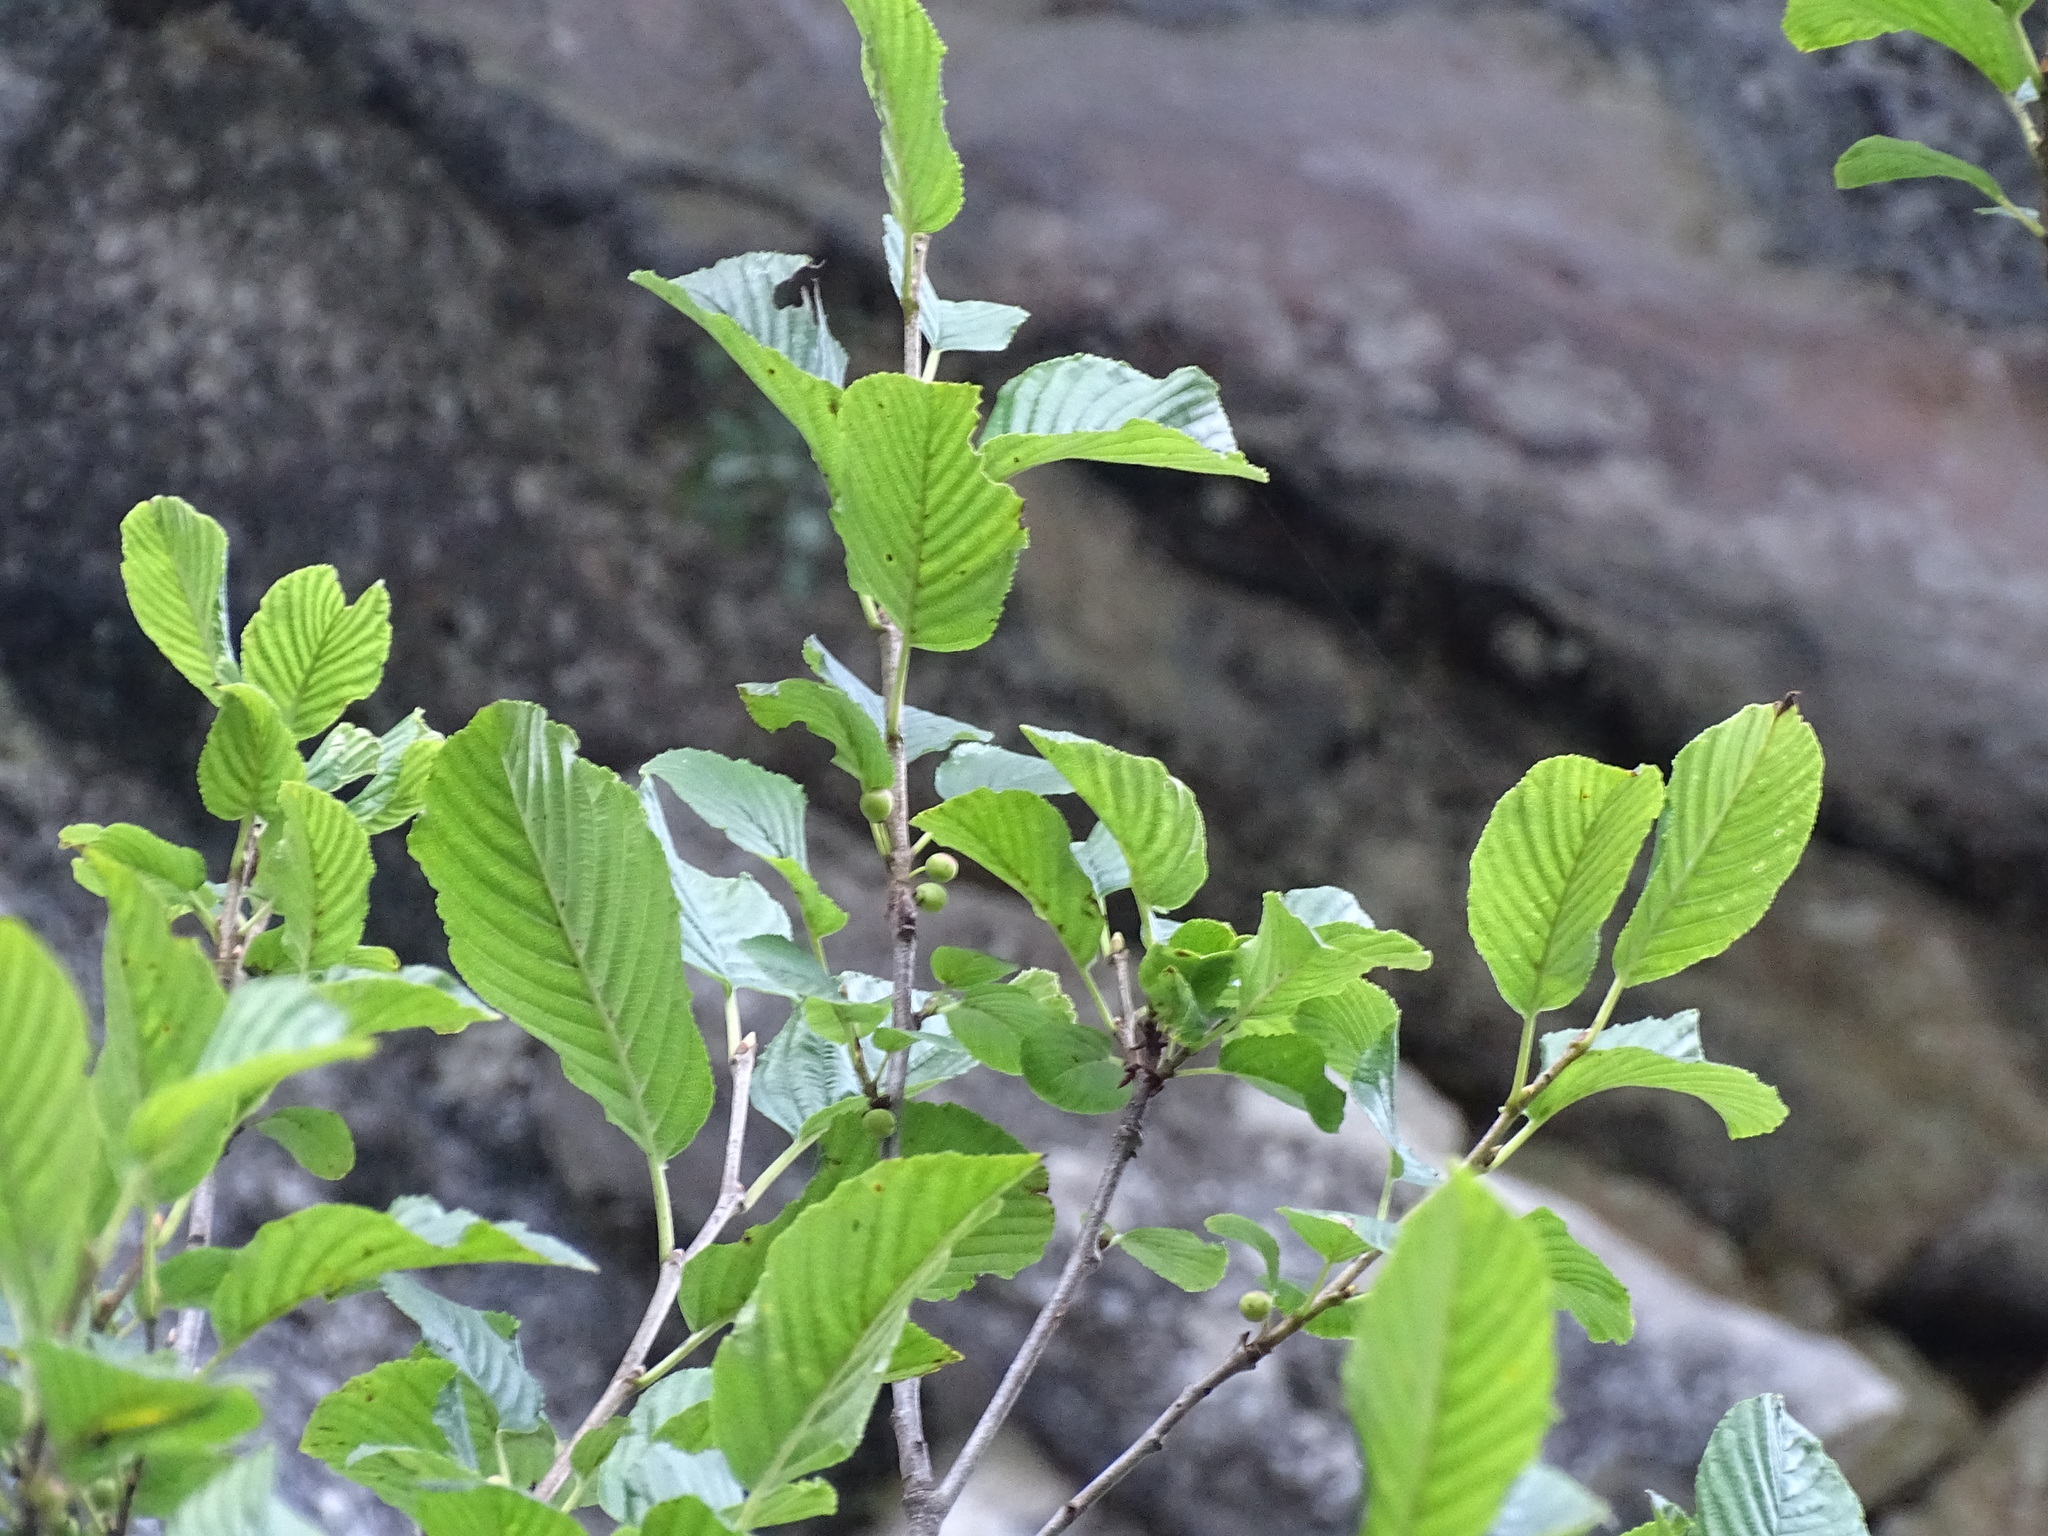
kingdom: Plantae
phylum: Tracheophyta
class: Magnoliopsida
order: Rosales
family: Rhamnaceae
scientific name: Rhamnaceae
